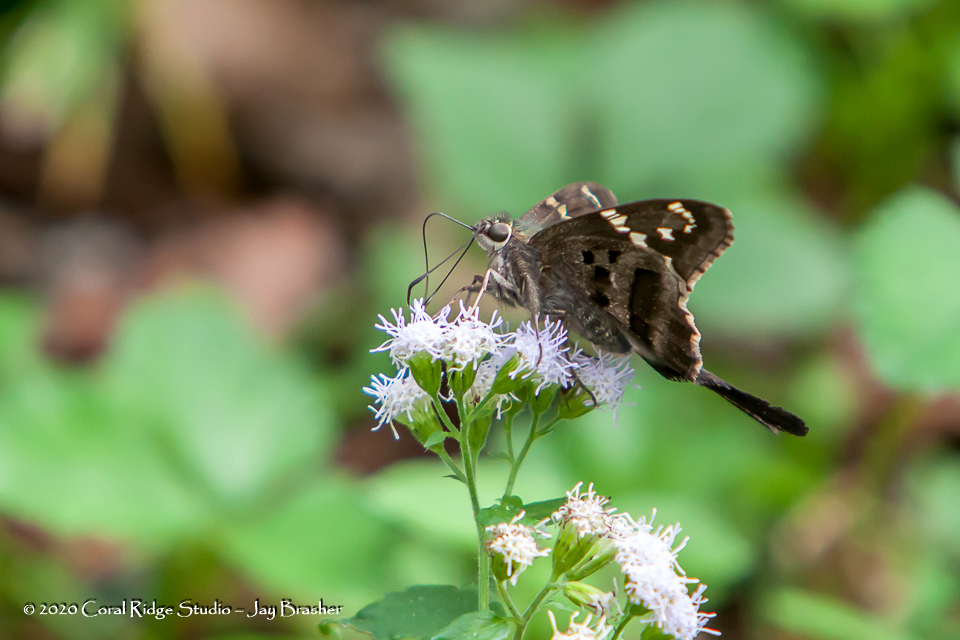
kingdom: Animalia
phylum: Arthropoda
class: Insecta
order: Lepidoptera
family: Hesperiidae
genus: Urbanus
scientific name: Urbanus proteus
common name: Long-tailed skipper
